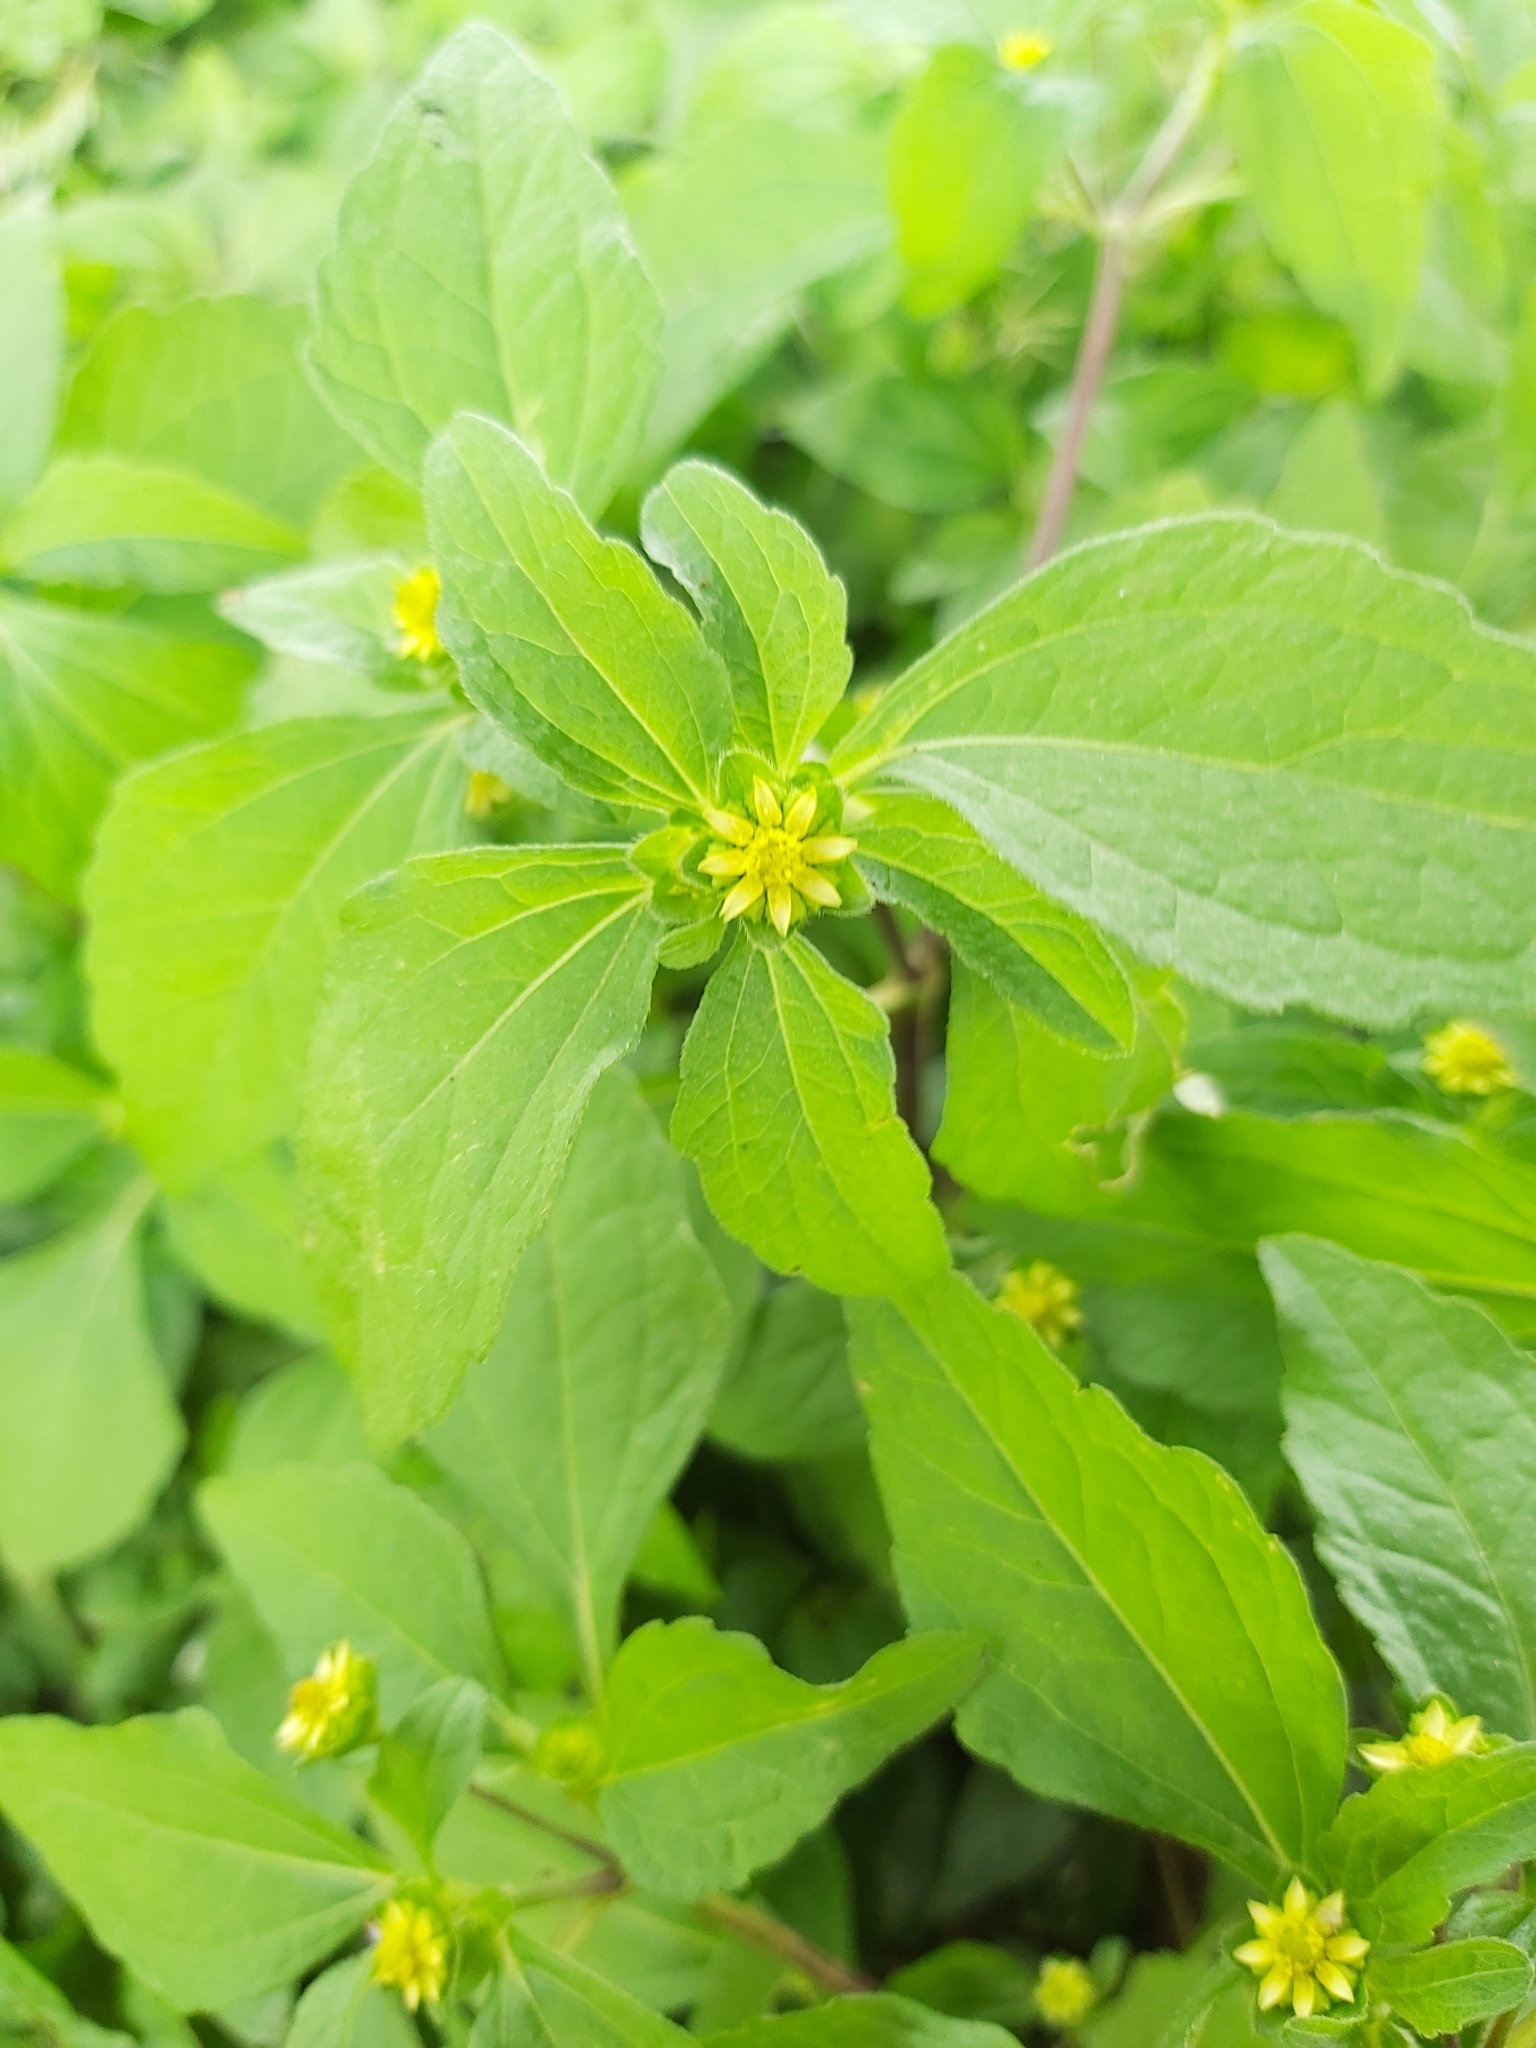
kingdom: Plantae
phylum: Tracheophyta
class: Magnoliopsida
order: Asterales
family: Asteraceae
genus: Melampodium
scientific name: Melampodium costaricense
